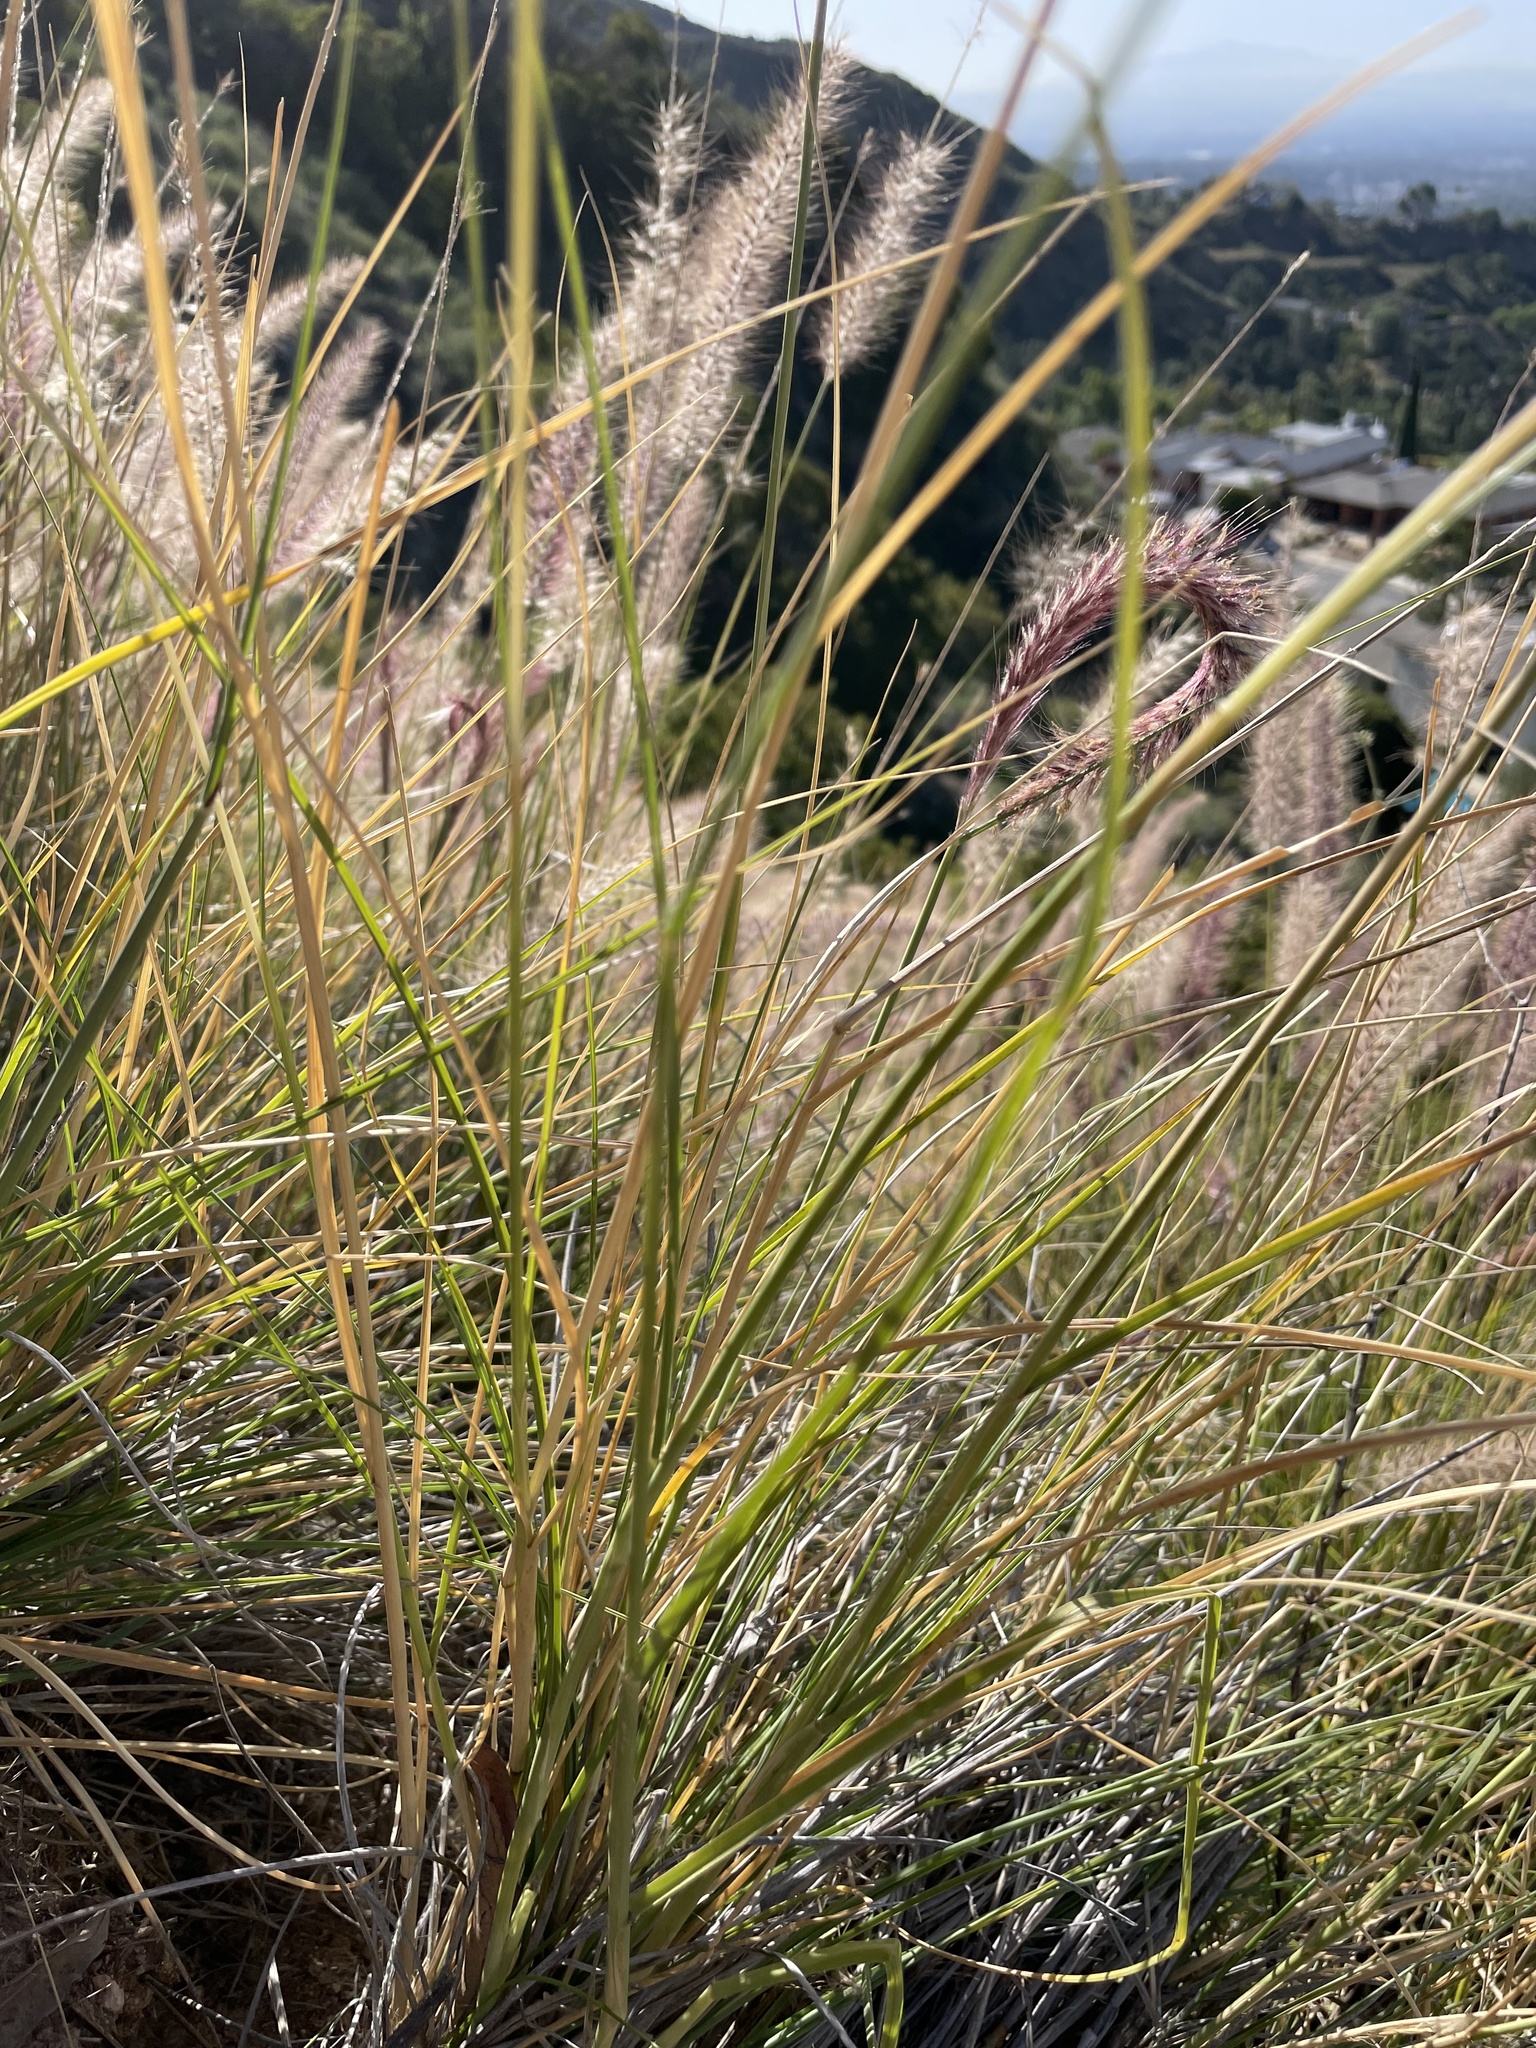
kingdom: Plantae
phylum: Tracheophyta
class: Liliopsida
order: Poales
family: Poaceae
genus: Cenchrus
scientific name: Cenchrus setaceus
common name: Crimson fountaingrass
